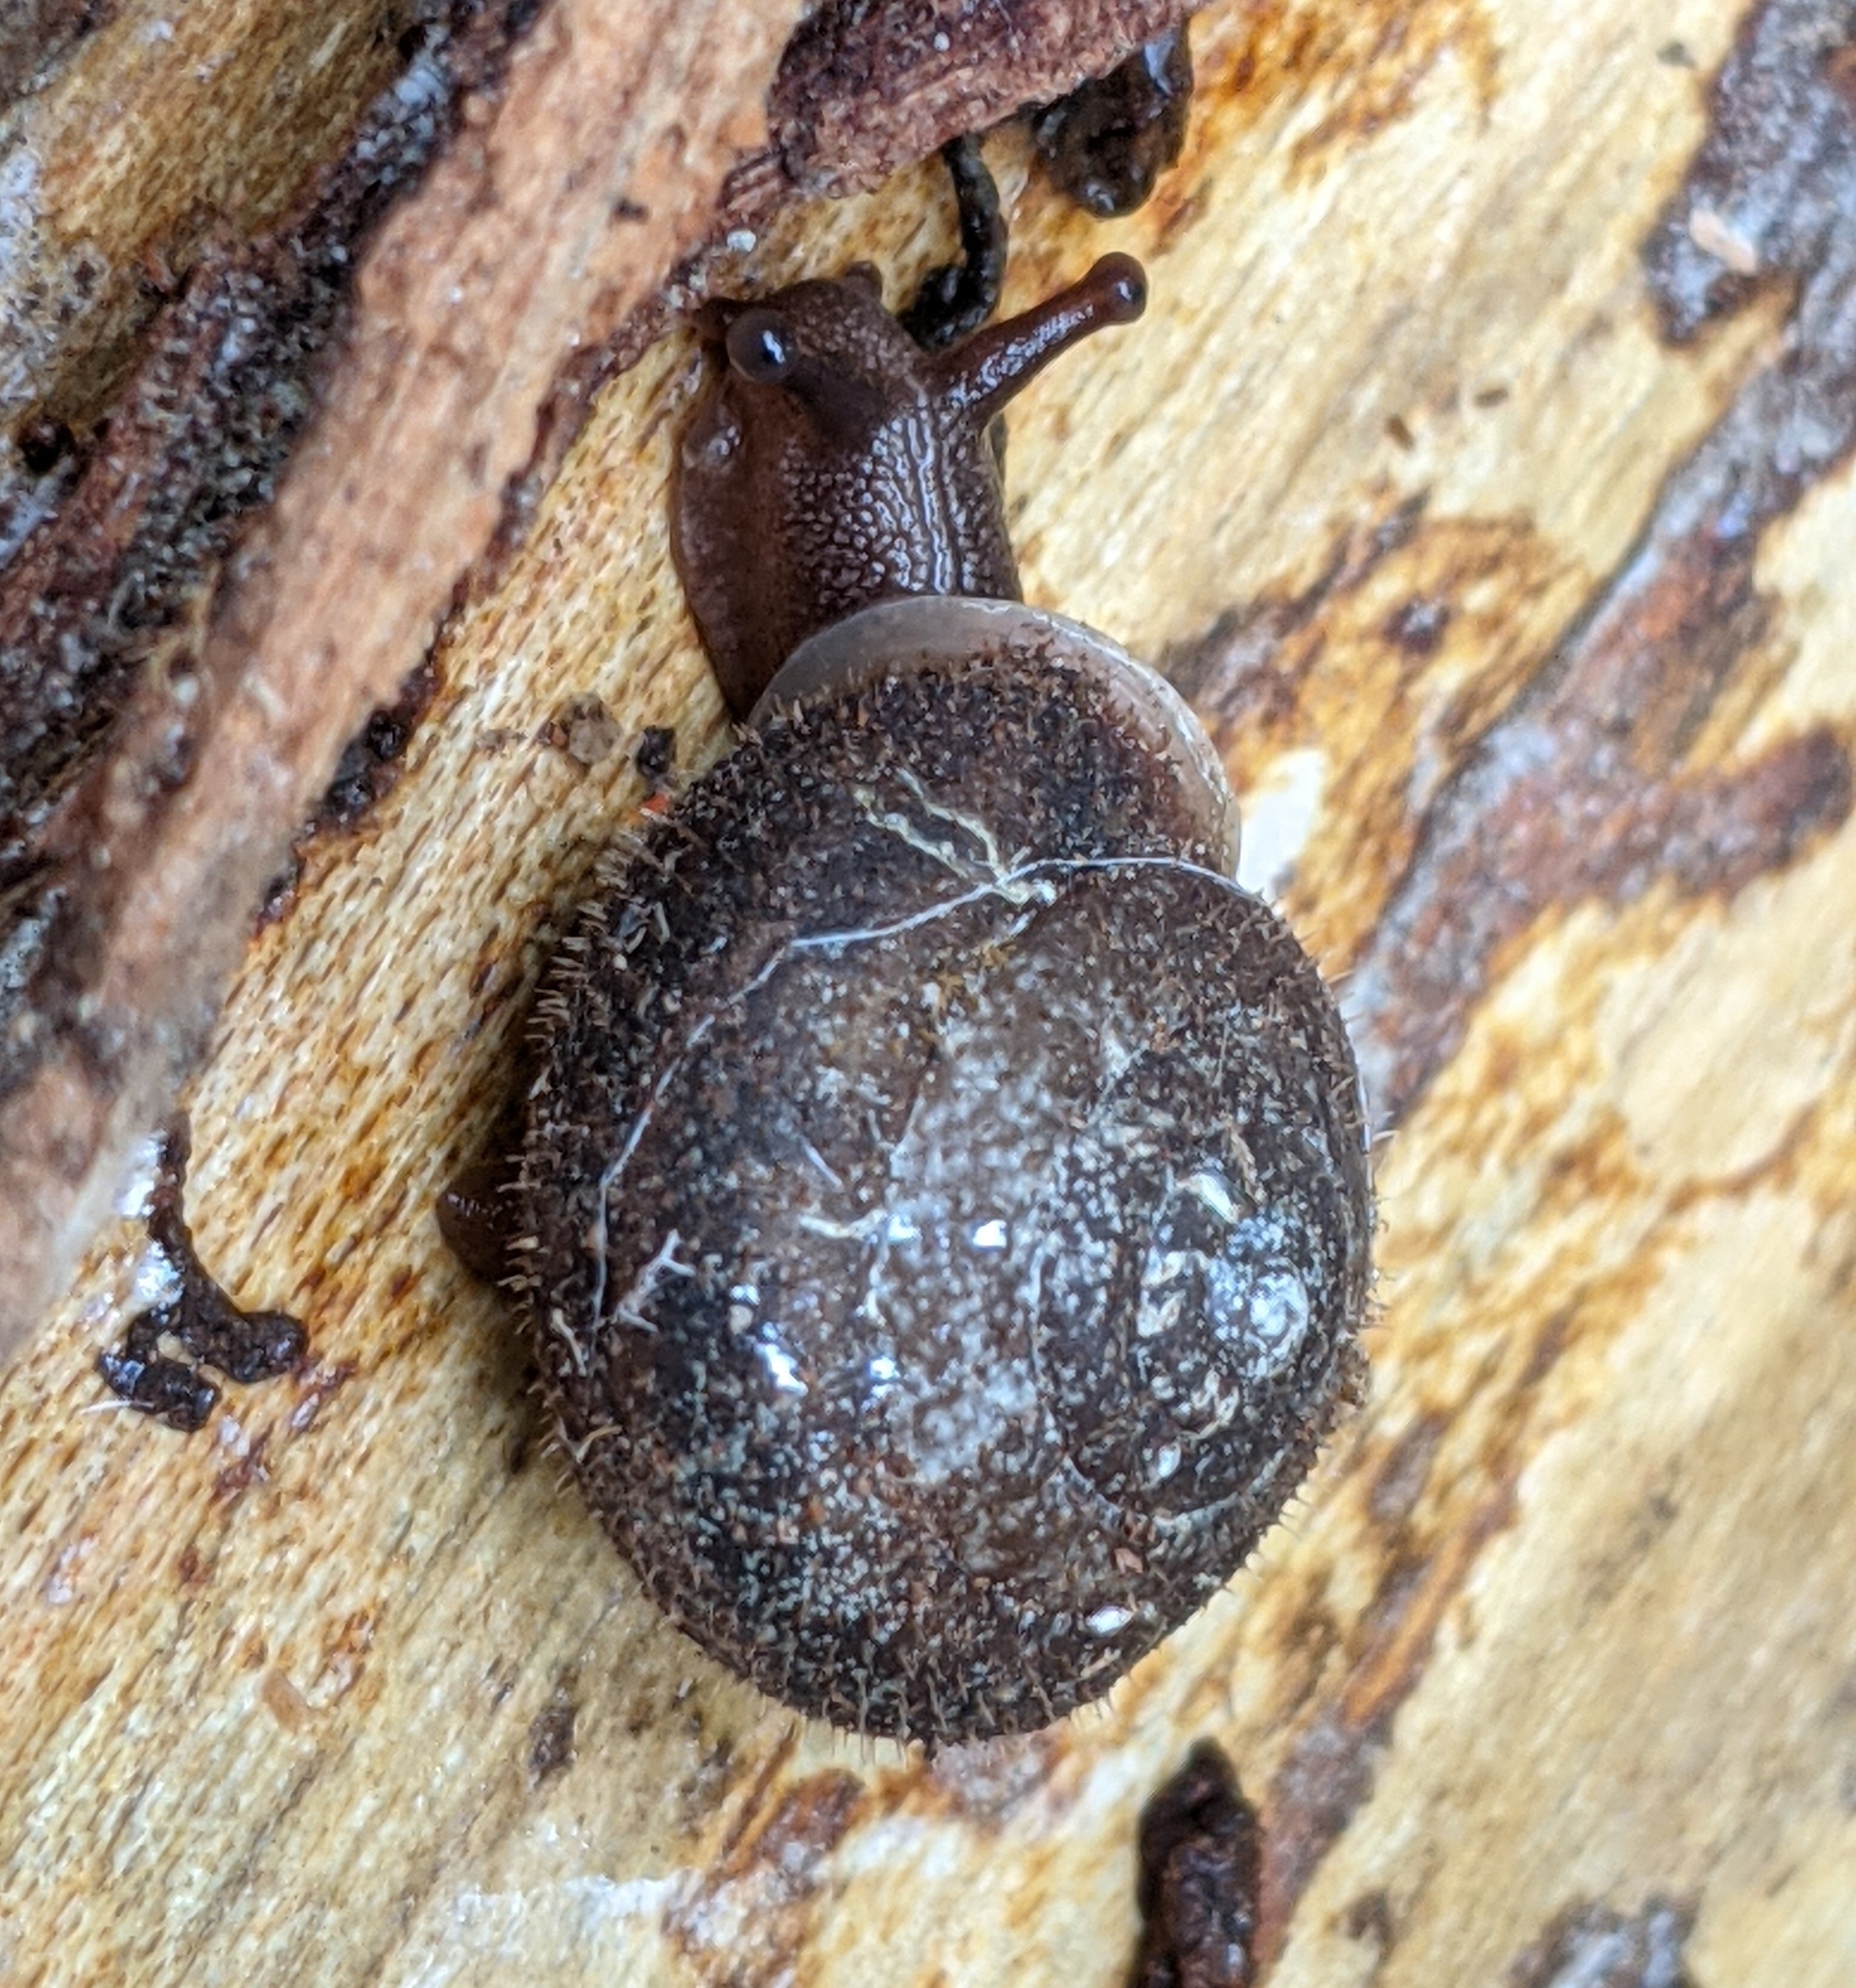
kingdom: Animalia
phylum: Mollusca
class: Gastropoda
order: Stylommatophora
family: Polygyridae
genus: Vespericola
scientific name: Vespericola columbianus
